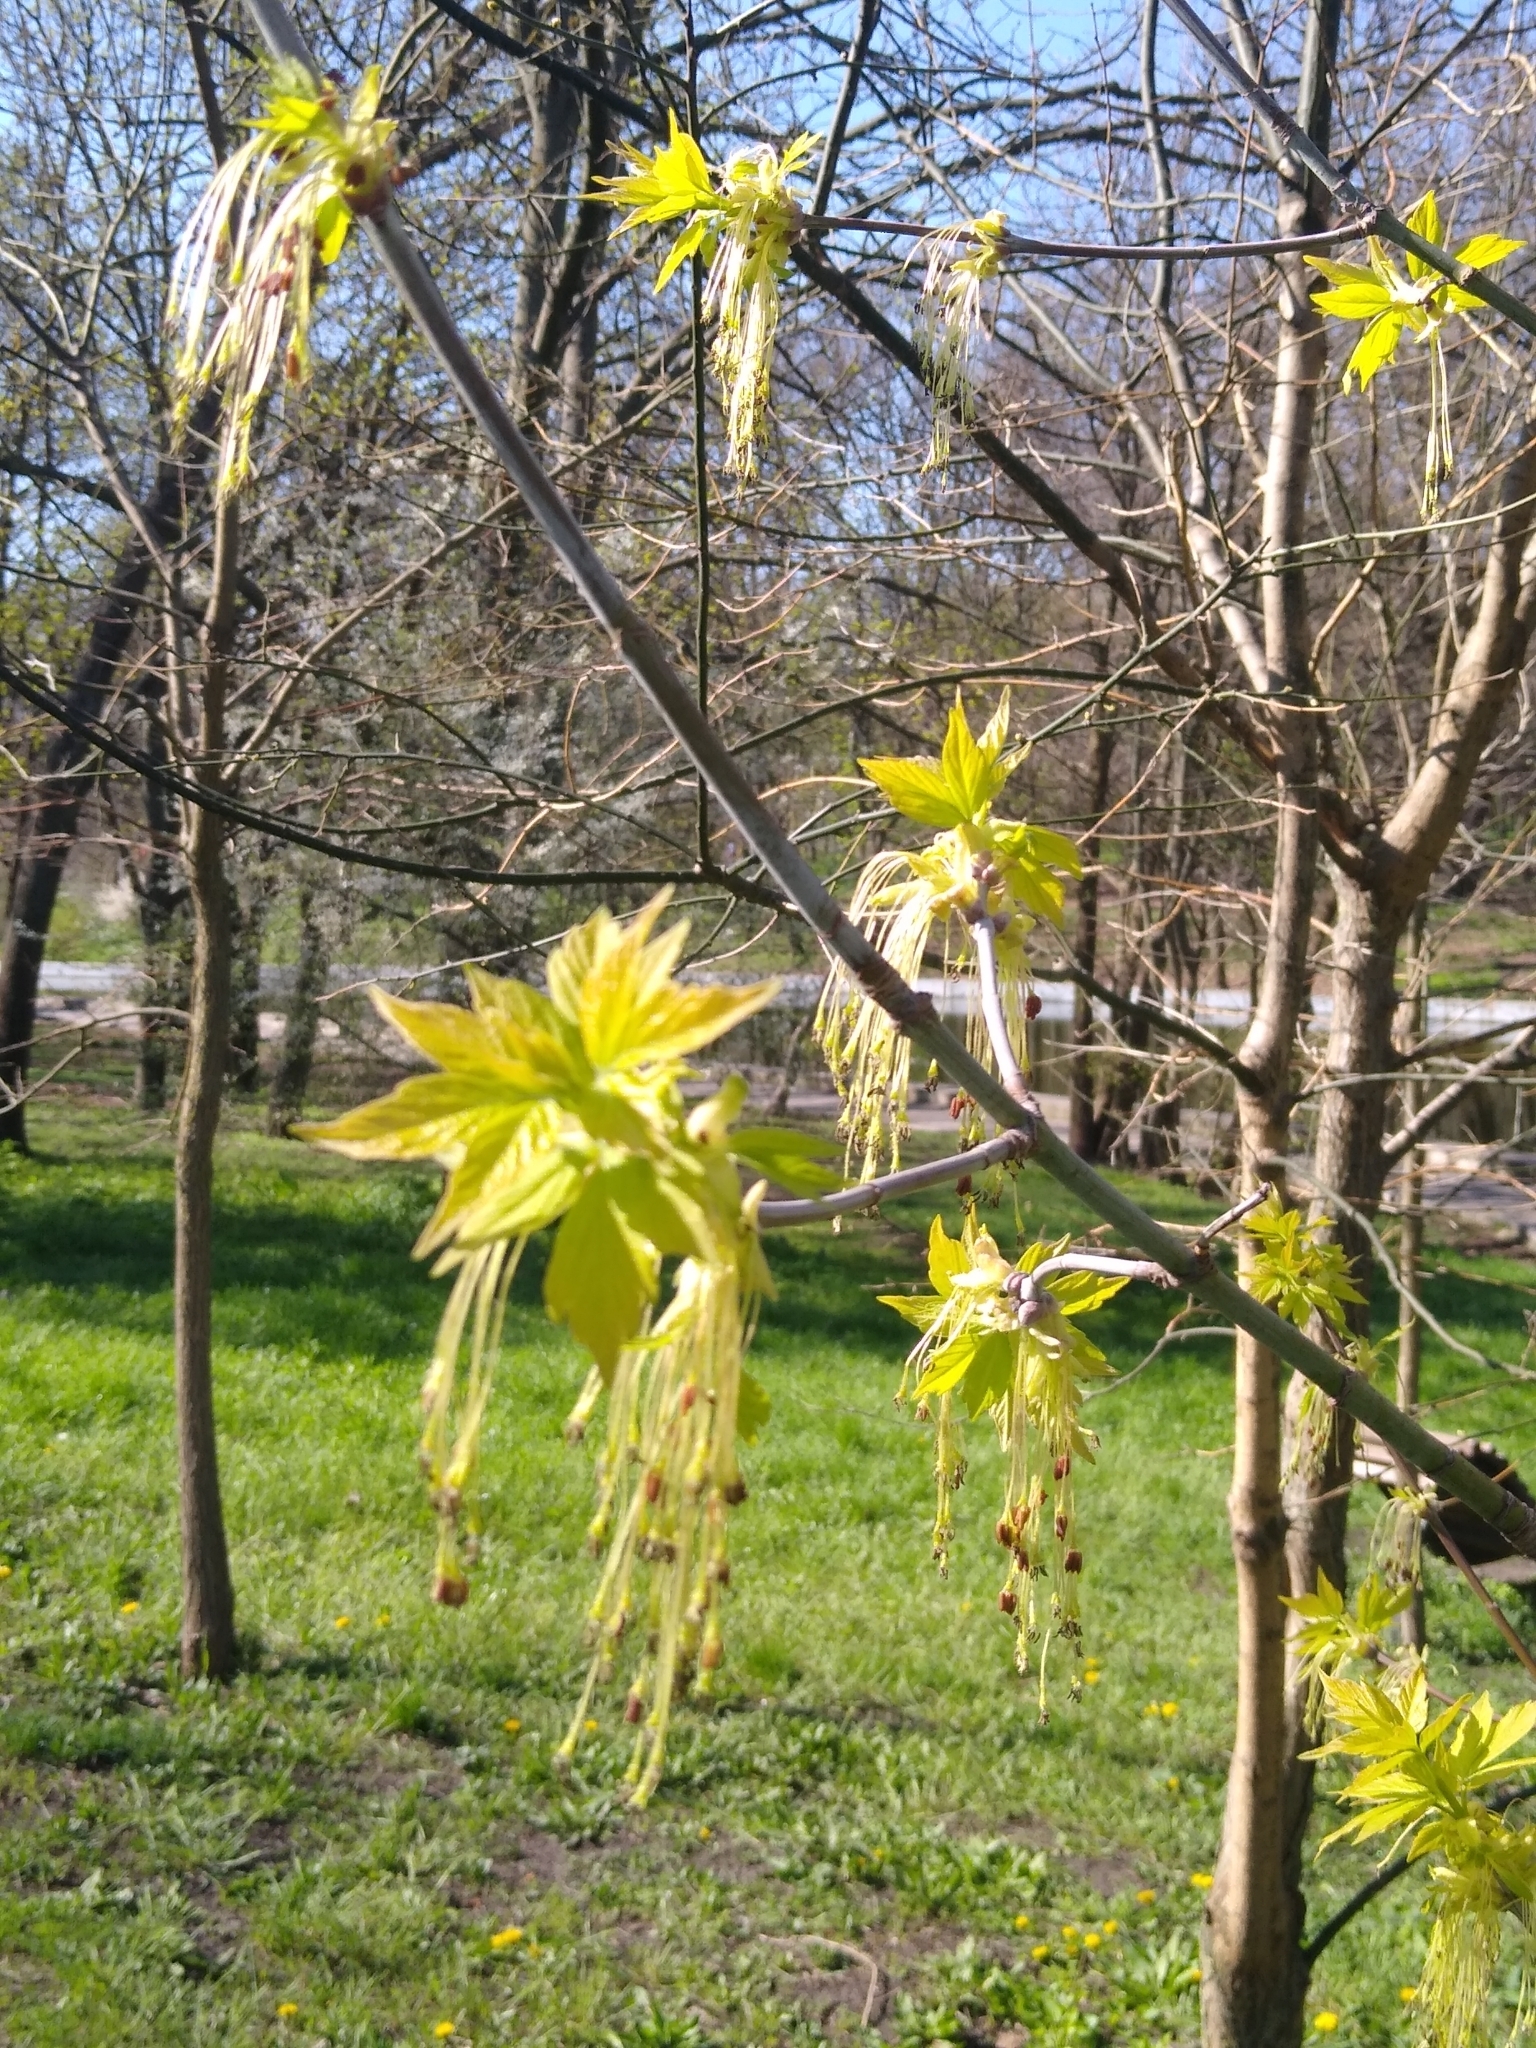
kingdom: Plantae
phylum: Tracheophyta
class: Magnoliopsida
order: Sapindales
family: Sapindaceae
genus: Acer
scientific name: Acer negundo
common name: Ashleaf maple
